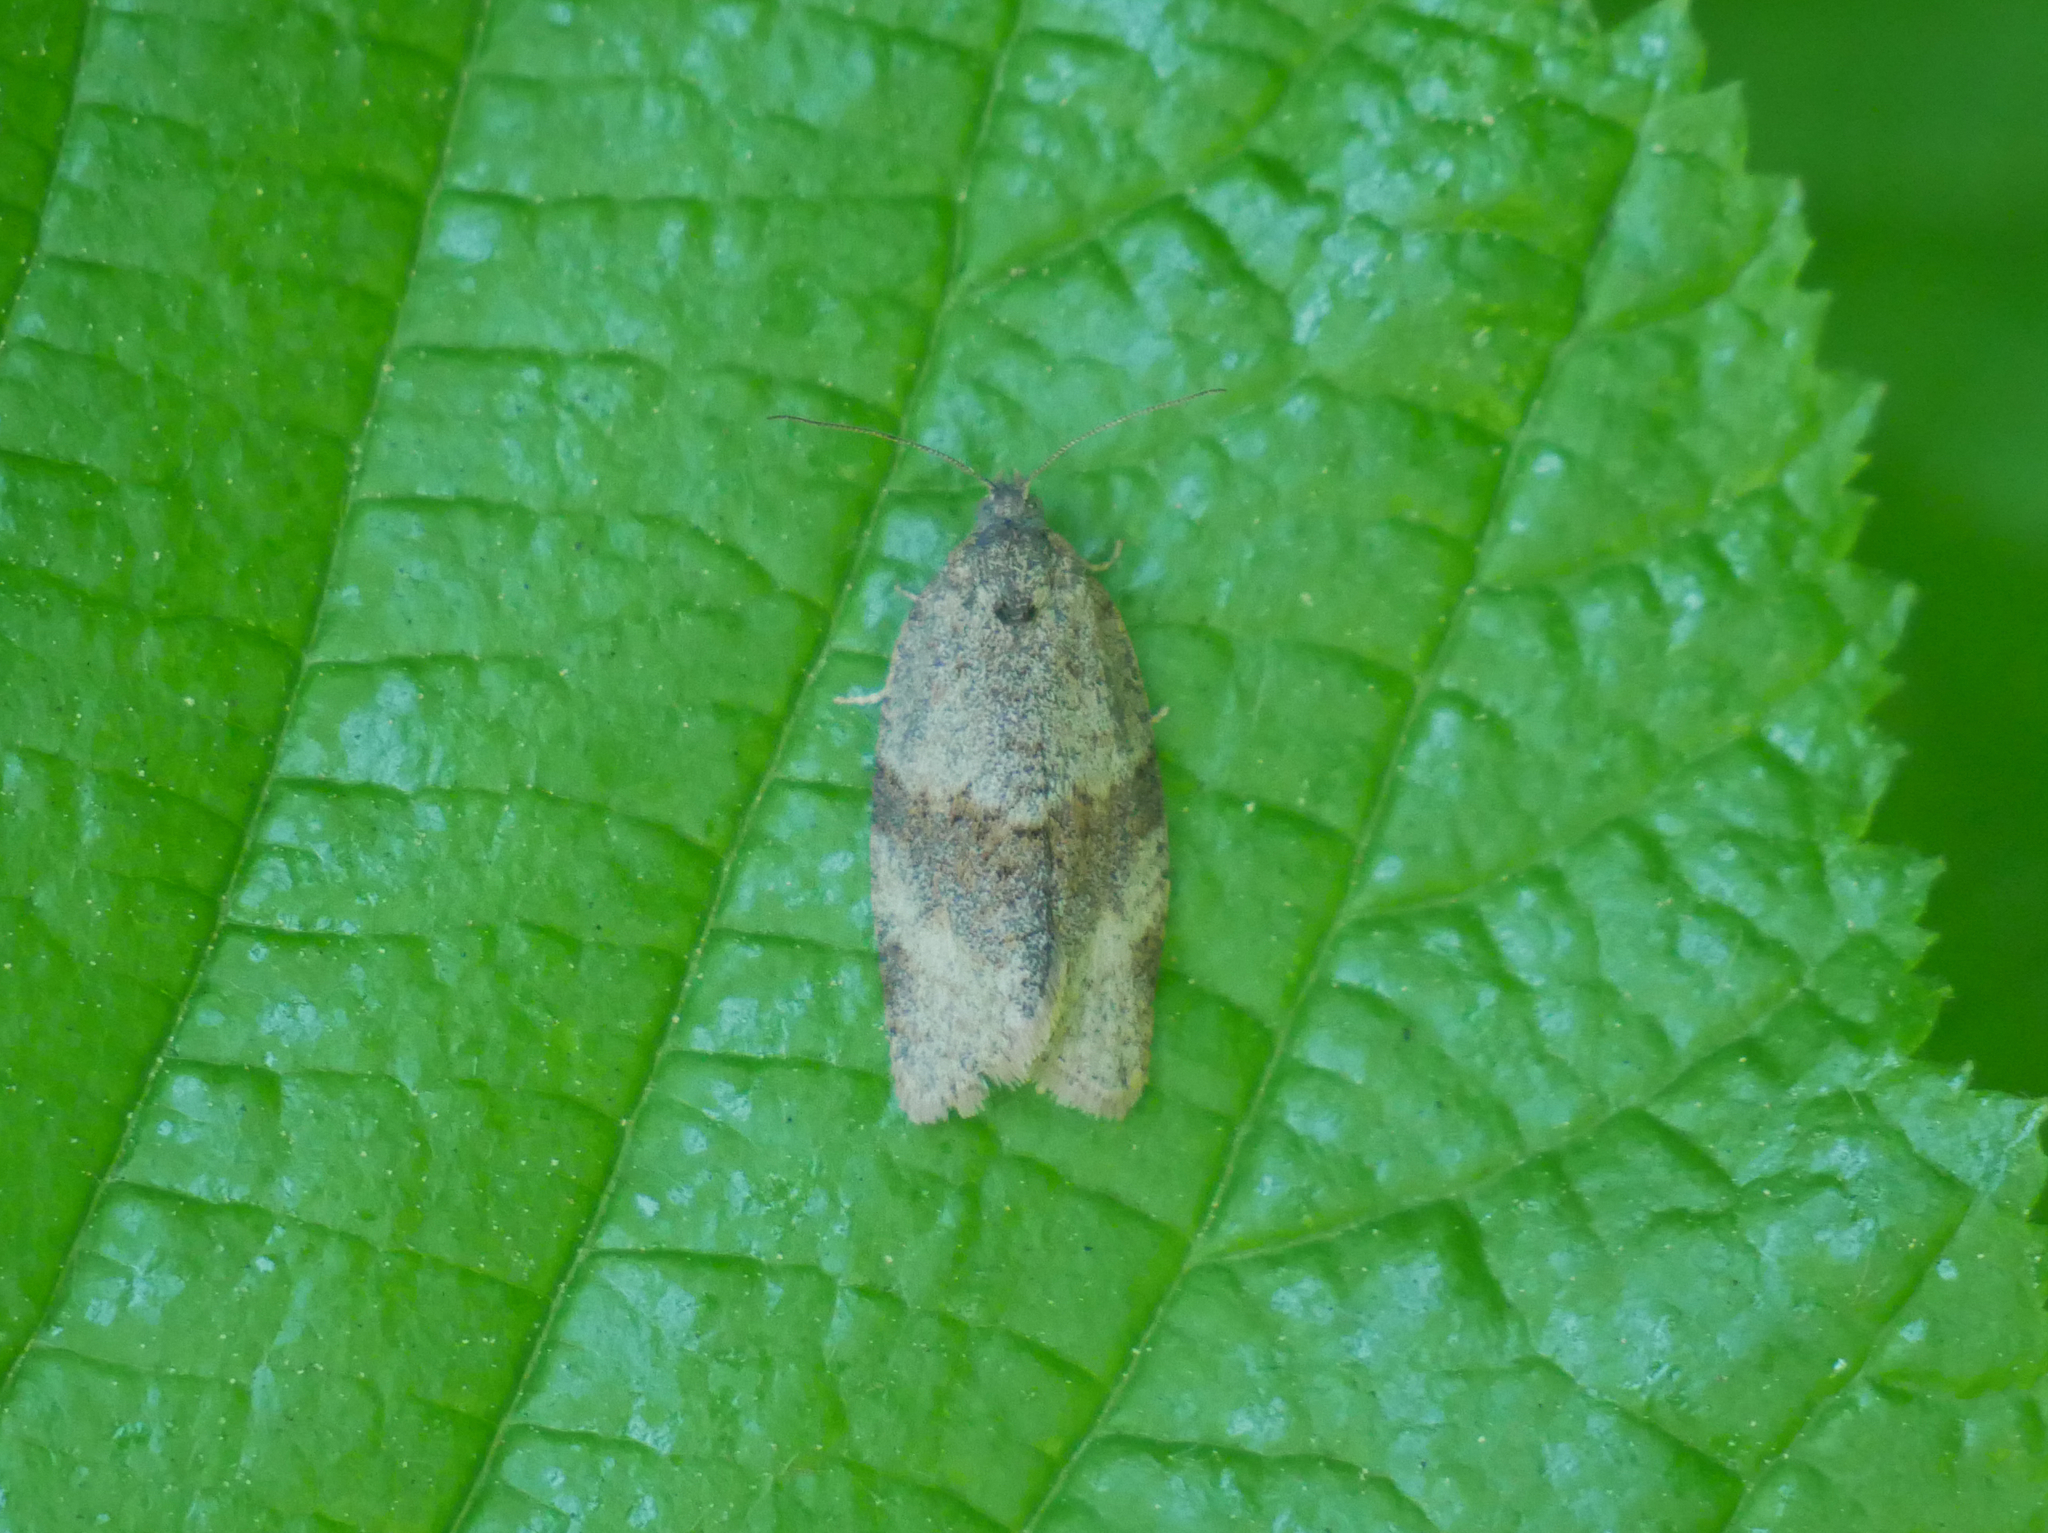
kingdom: Animalia
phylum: Arthropoda
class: Insecta
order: Lepidoptera
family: Tortricidae
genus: Syndemis
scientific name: Syndemis musculana
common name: Dark-barred twist
